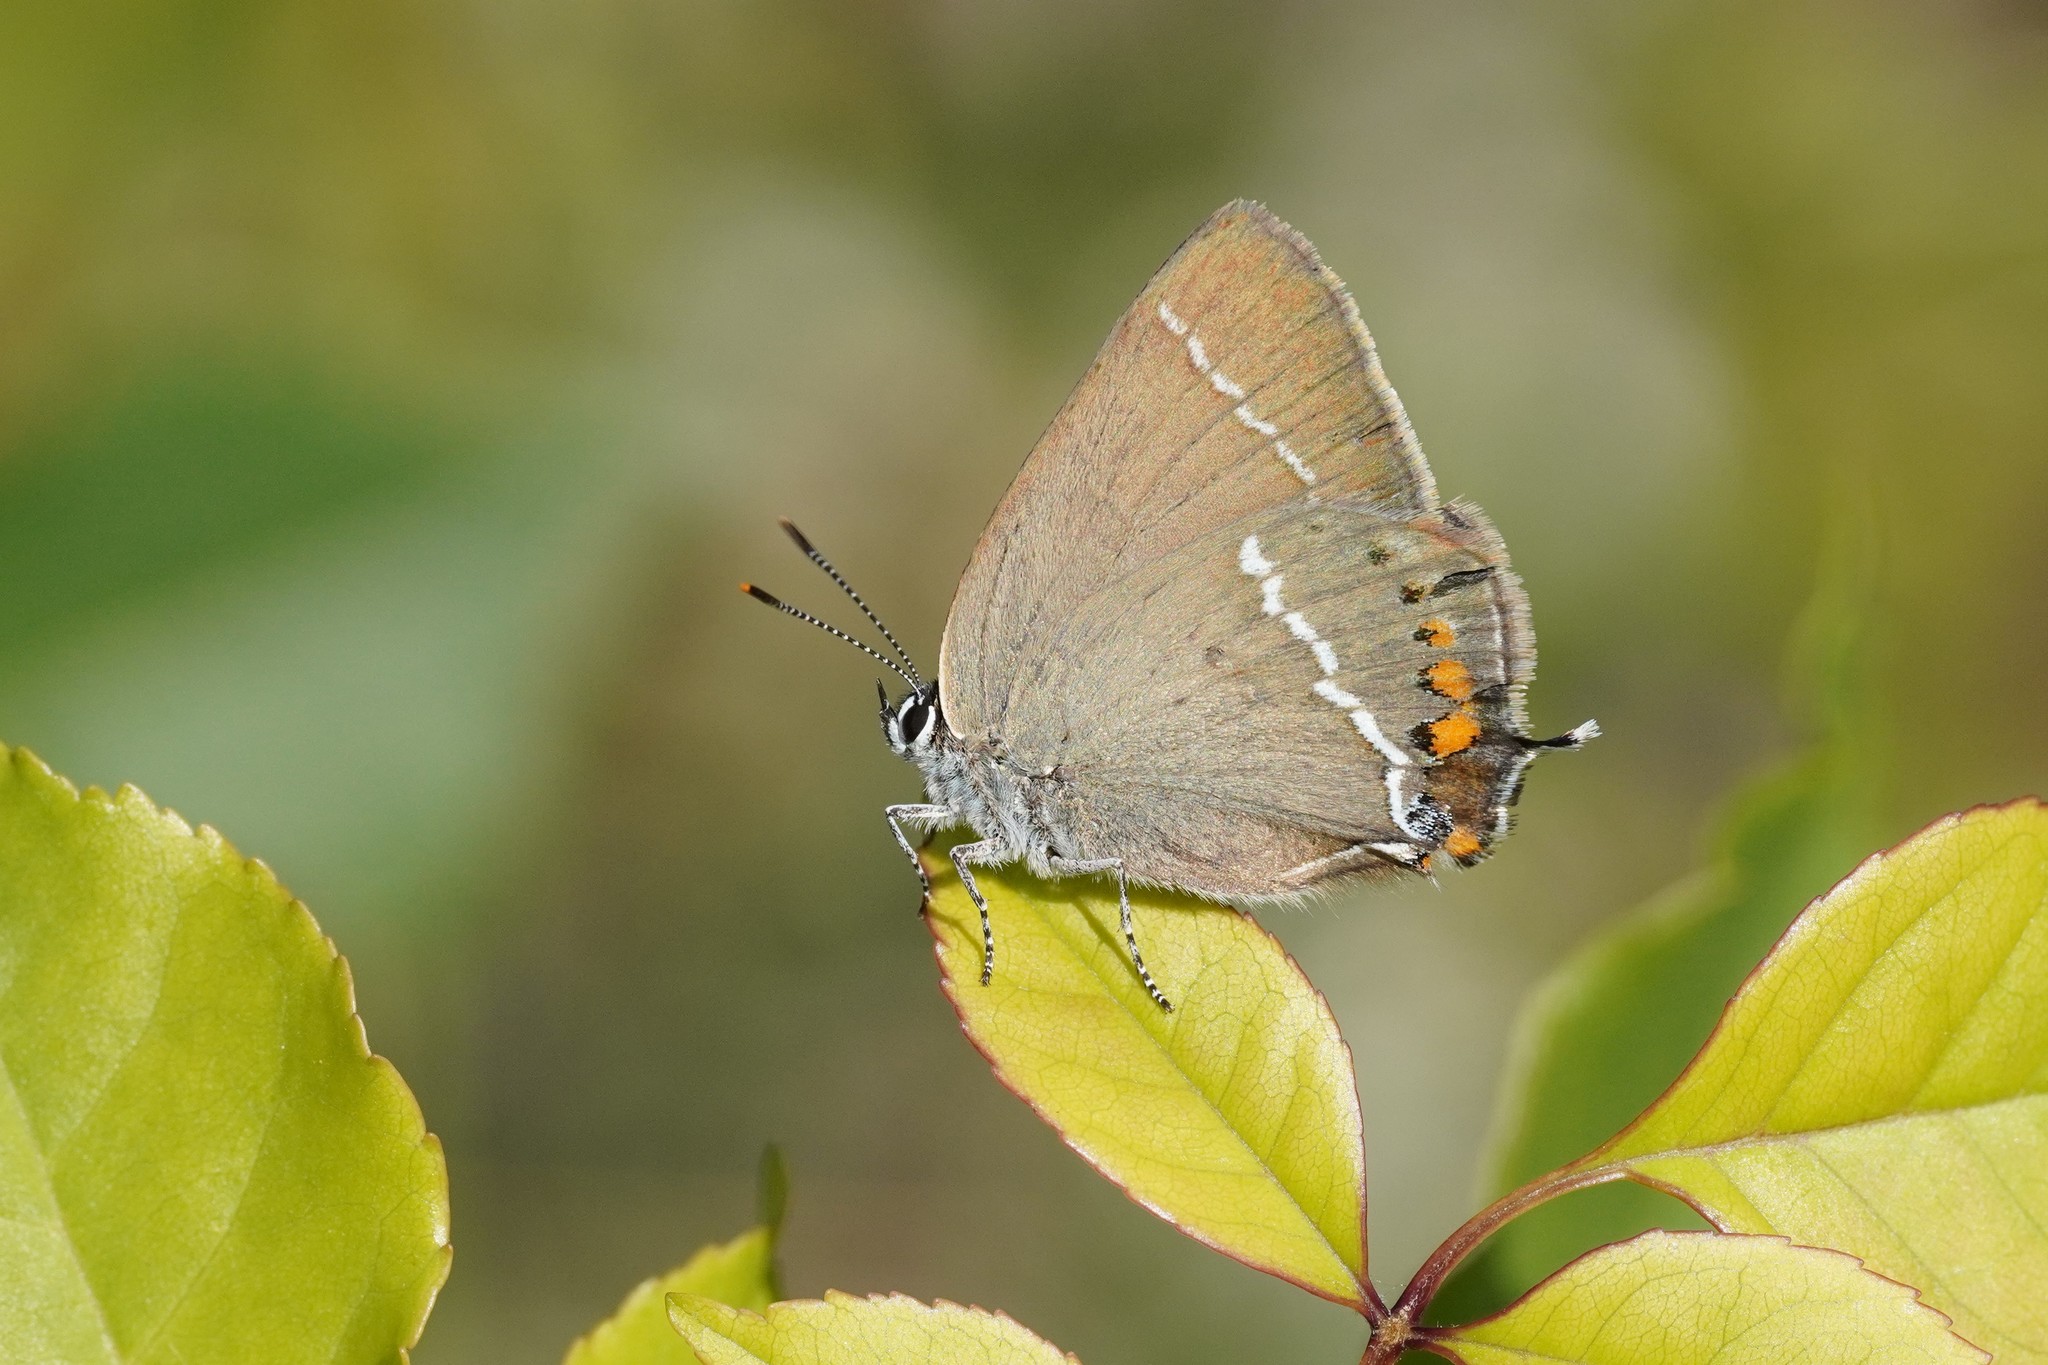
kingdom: Animalia
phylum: Arthropoda
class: Insecta
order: Lepidoptera
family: Lycaenidae
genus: Tuttiola
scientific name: Tuttiola spini
